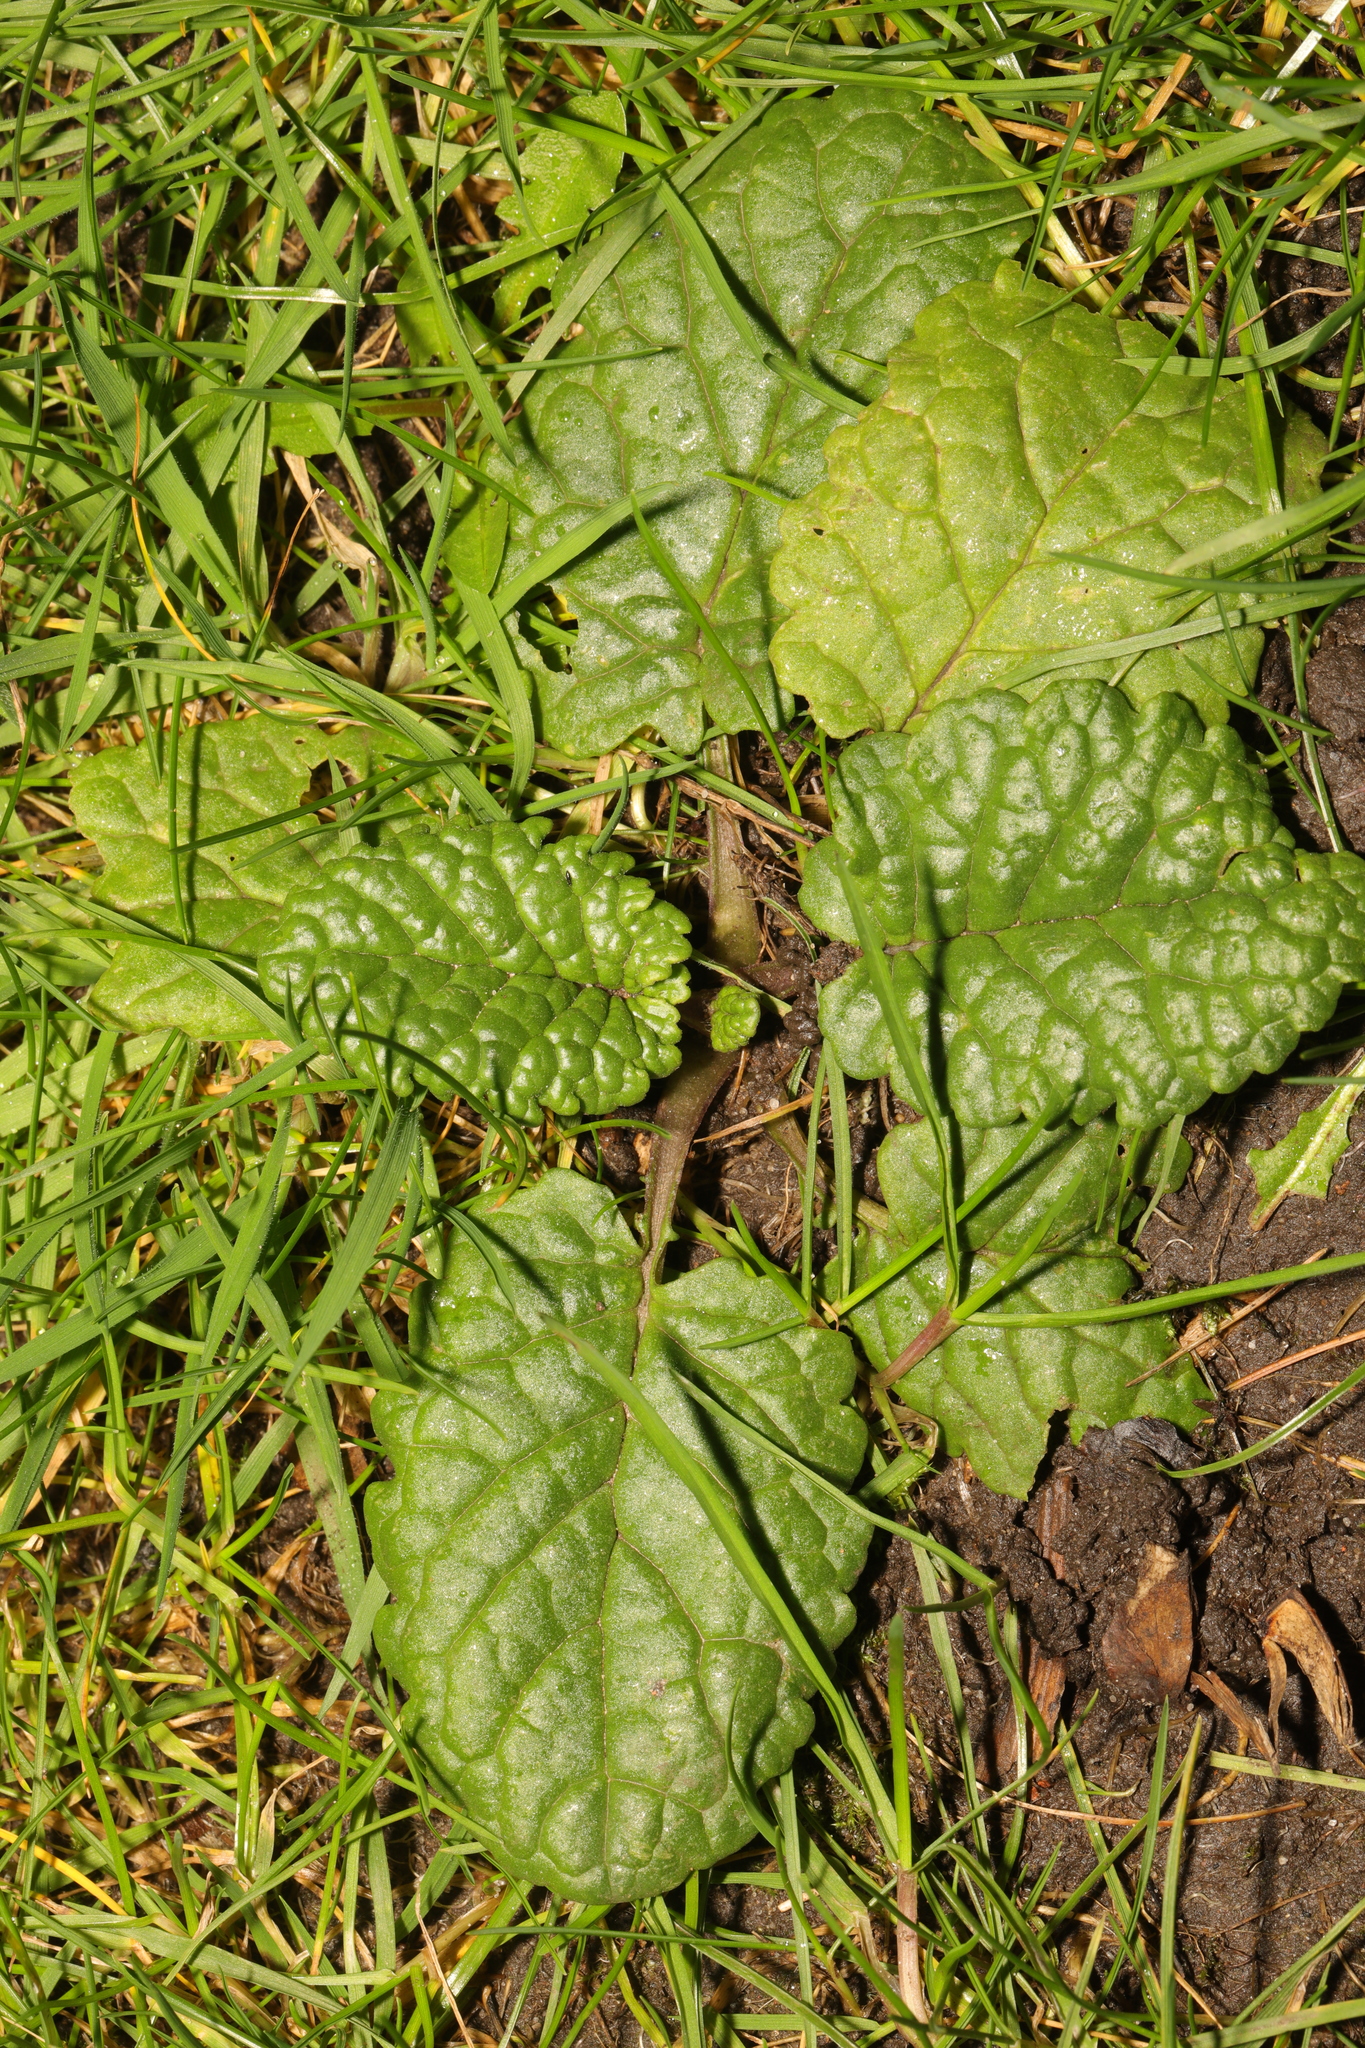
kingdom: Plantae
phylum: Tracheophyta
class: Magnoliopsida
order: Asterales
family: Asteraceae
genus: Jacobaea
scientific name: Jacobaea vulgaris
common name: Stinking willie
